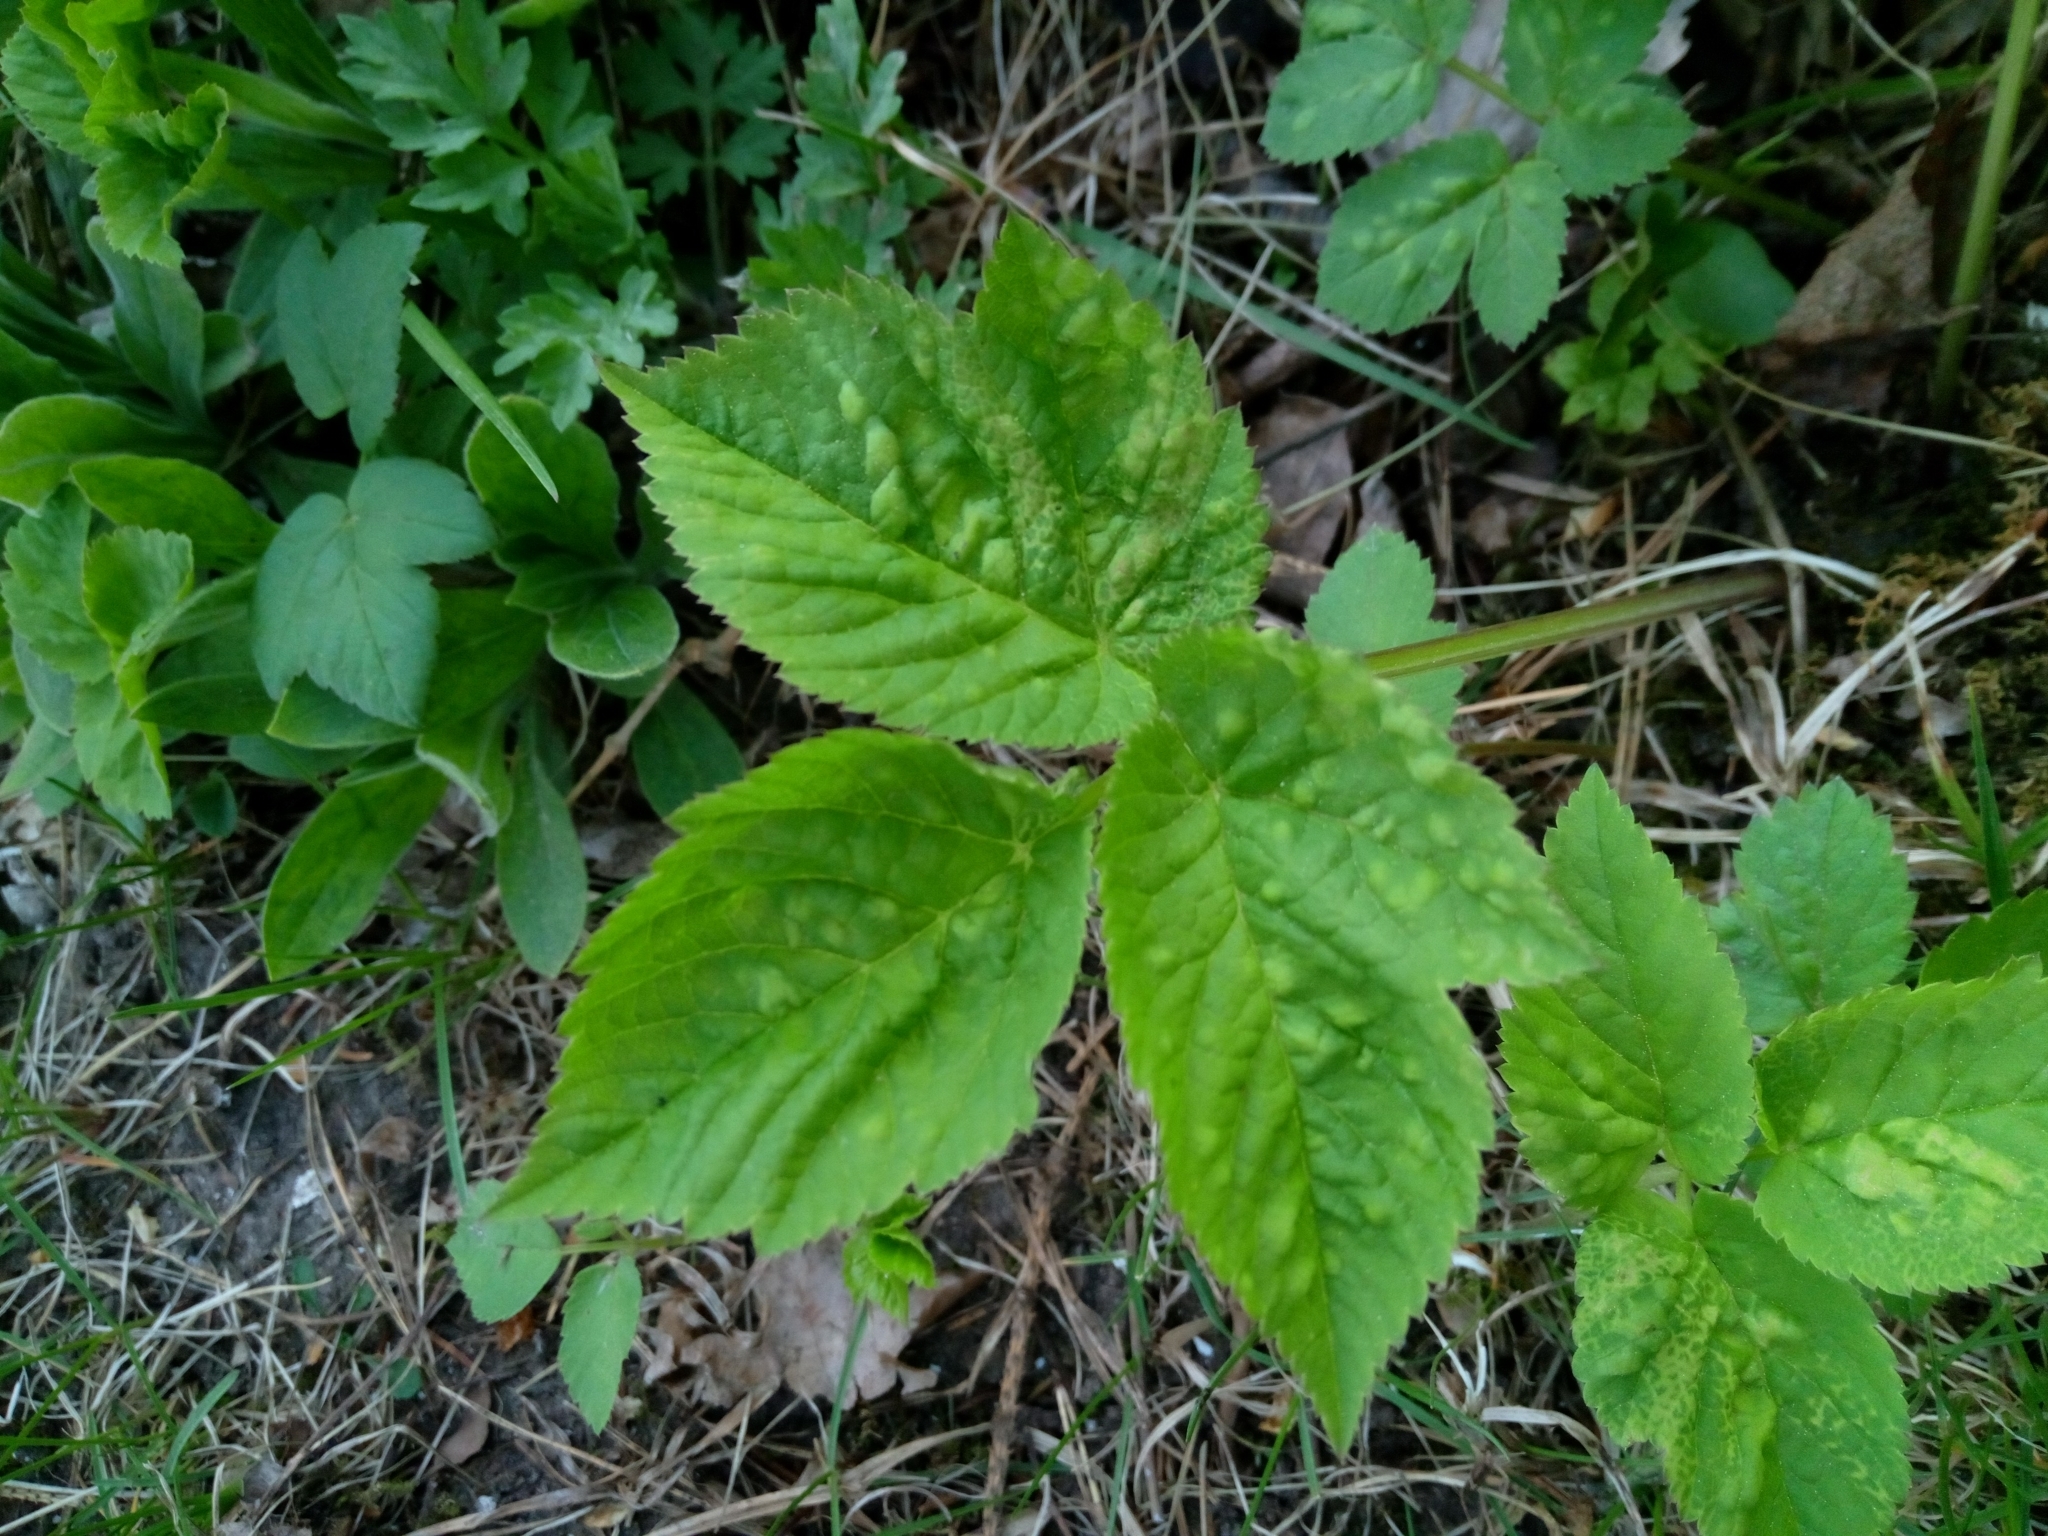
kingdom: Plantae
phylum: Tracheophyta
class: Magnoliopsida
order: Apiales
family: Apiaceae
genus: Aegopodium
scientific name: Aegopodium podagraria
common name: Ground-elder
